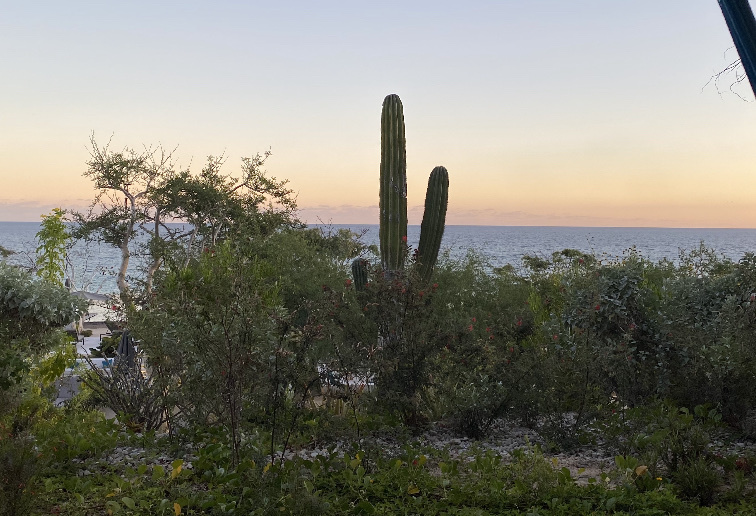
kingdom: Plantae
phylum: Tracheophyta
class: Magnoliopsida
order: Caryophyllales
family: Cactaceae
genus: Pachycereus
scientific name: Pachycereus pringlei
